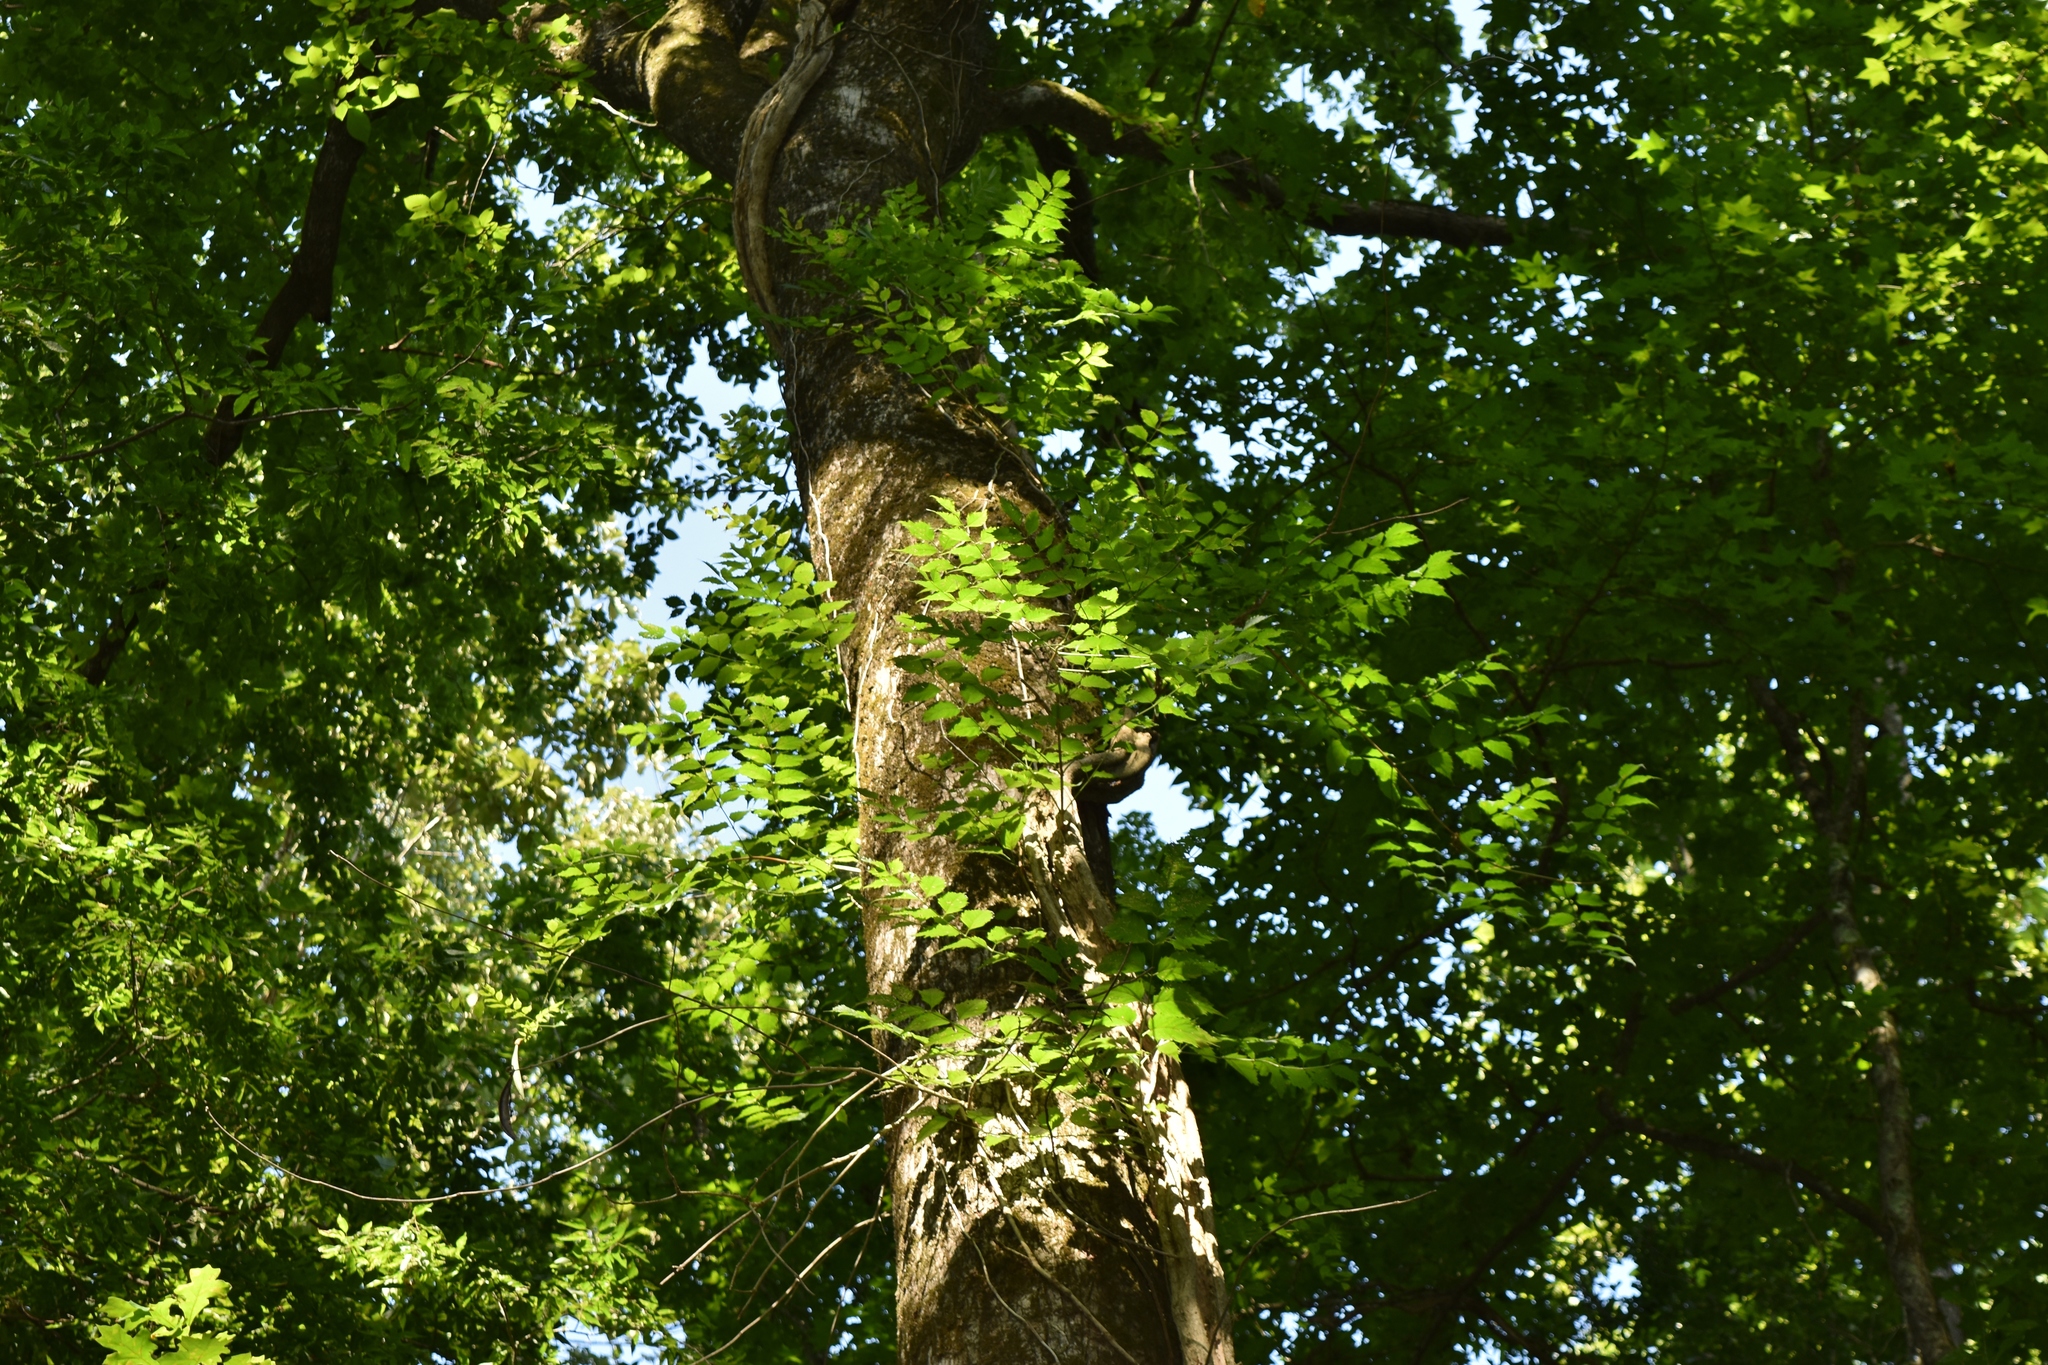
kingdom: Plantae
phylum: Tracheophyta
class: Magnoliopsida
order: Lamiales
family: Bignoniaceae
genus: Campsis
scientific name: Campsis radicans
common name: Trumpet-creeper
